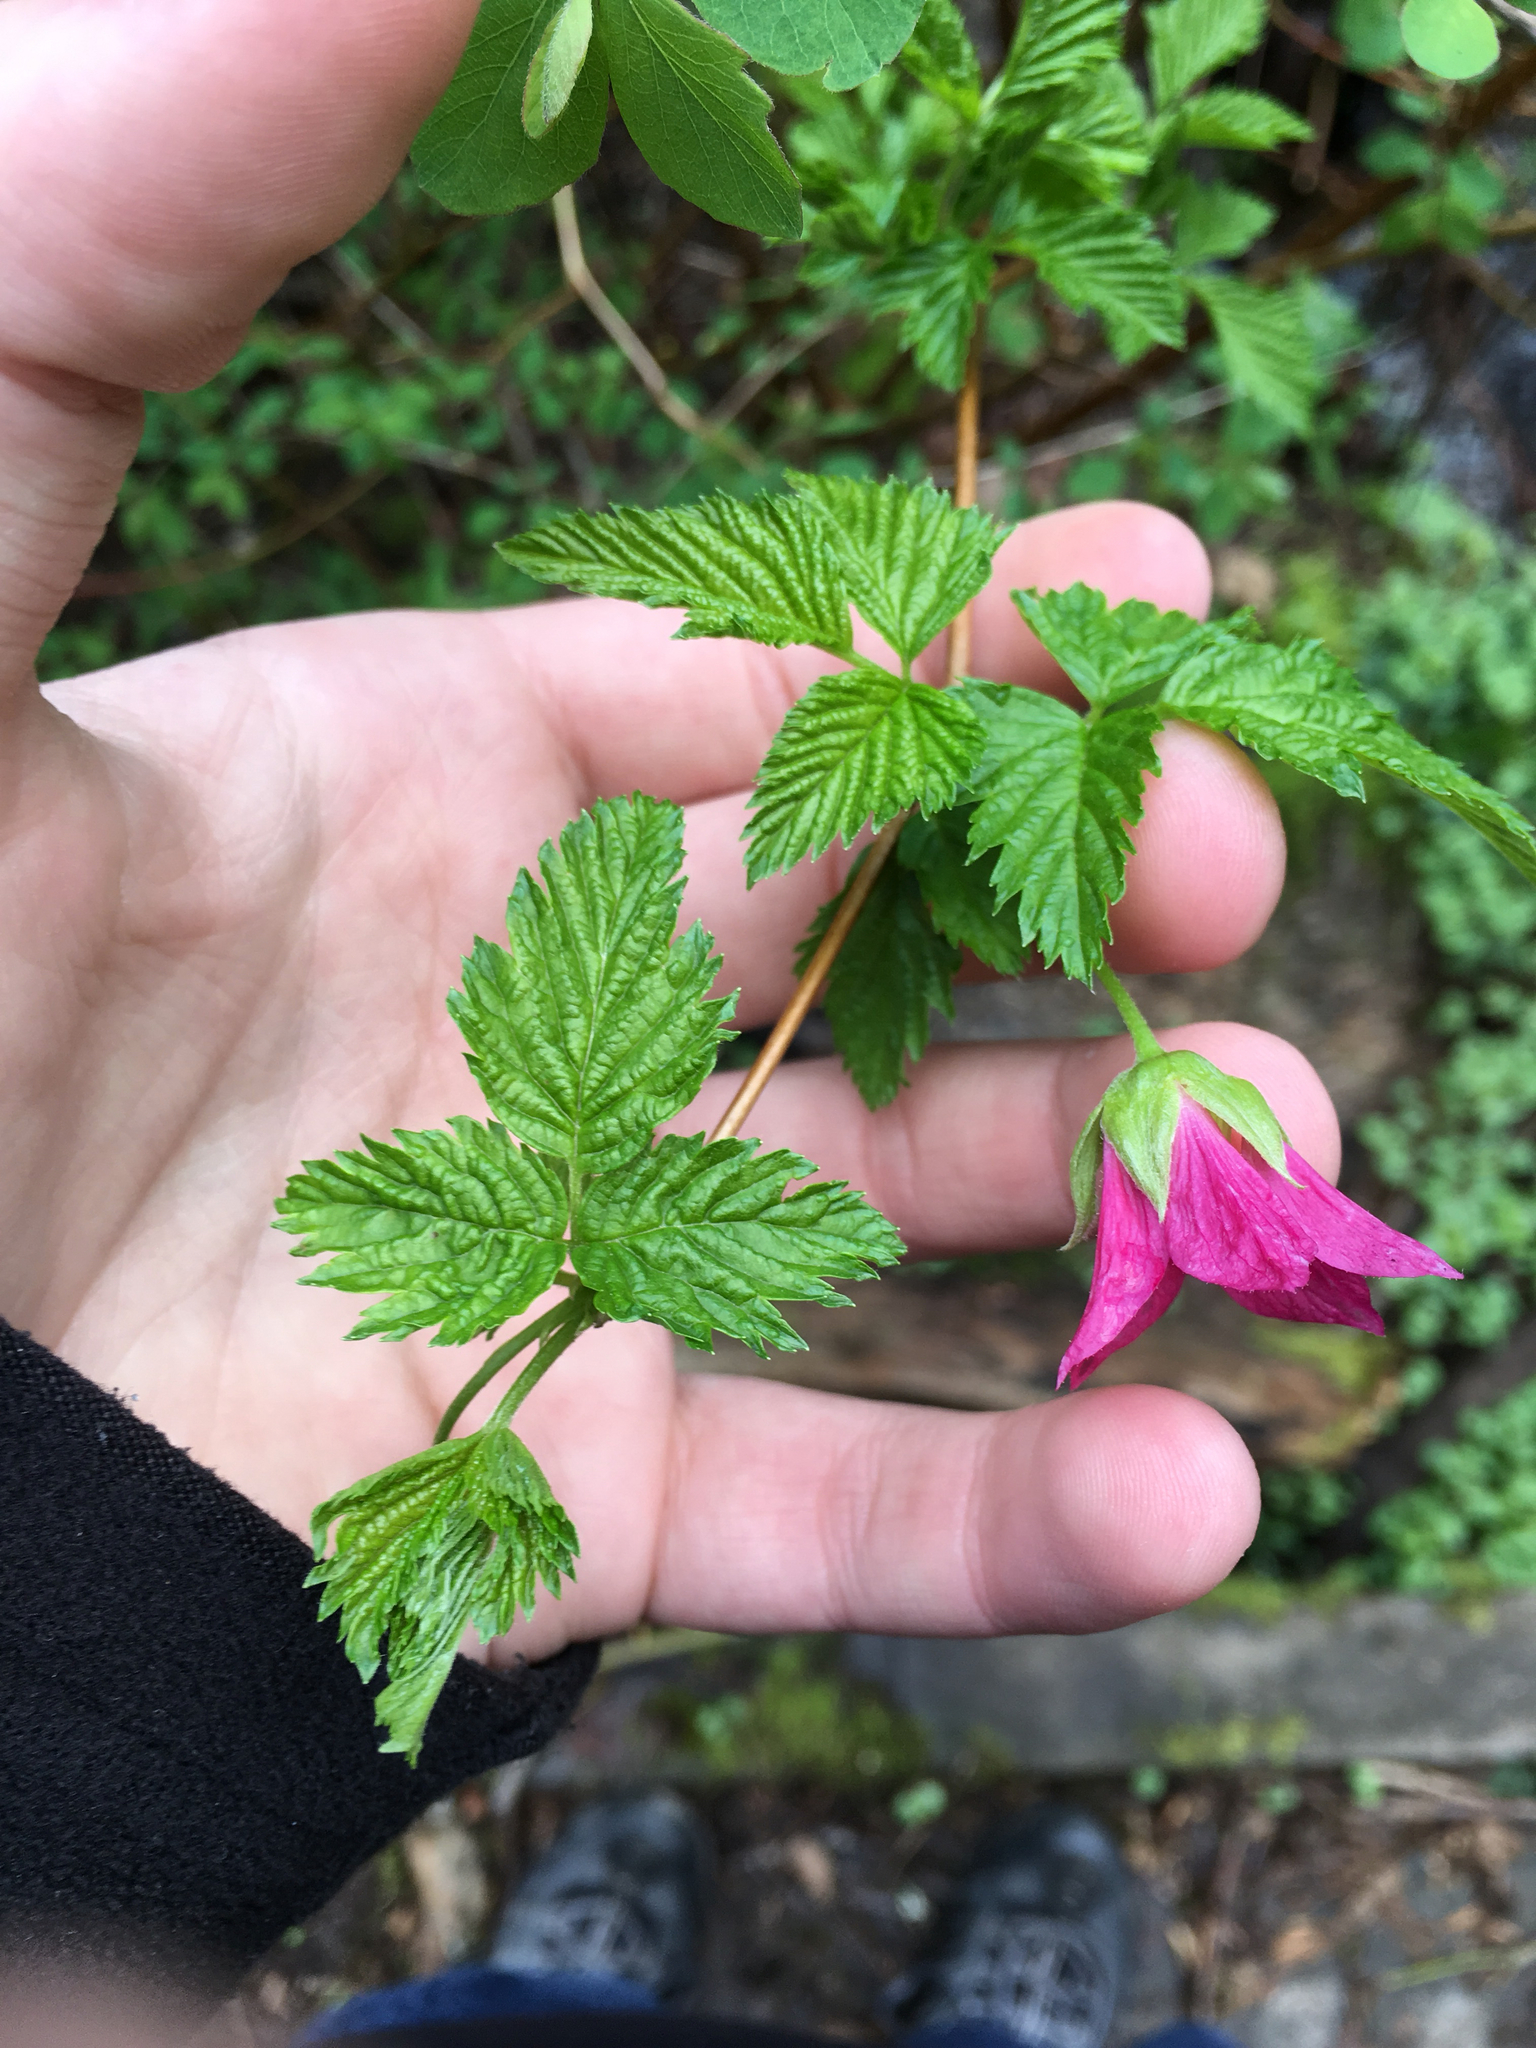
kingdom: Plantae
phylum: Tracheophyta
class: Magnoliopsida
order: Rosales
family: Rosaceae
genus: Rubus
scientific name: Rubus spectabilis
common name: Salmonberry
